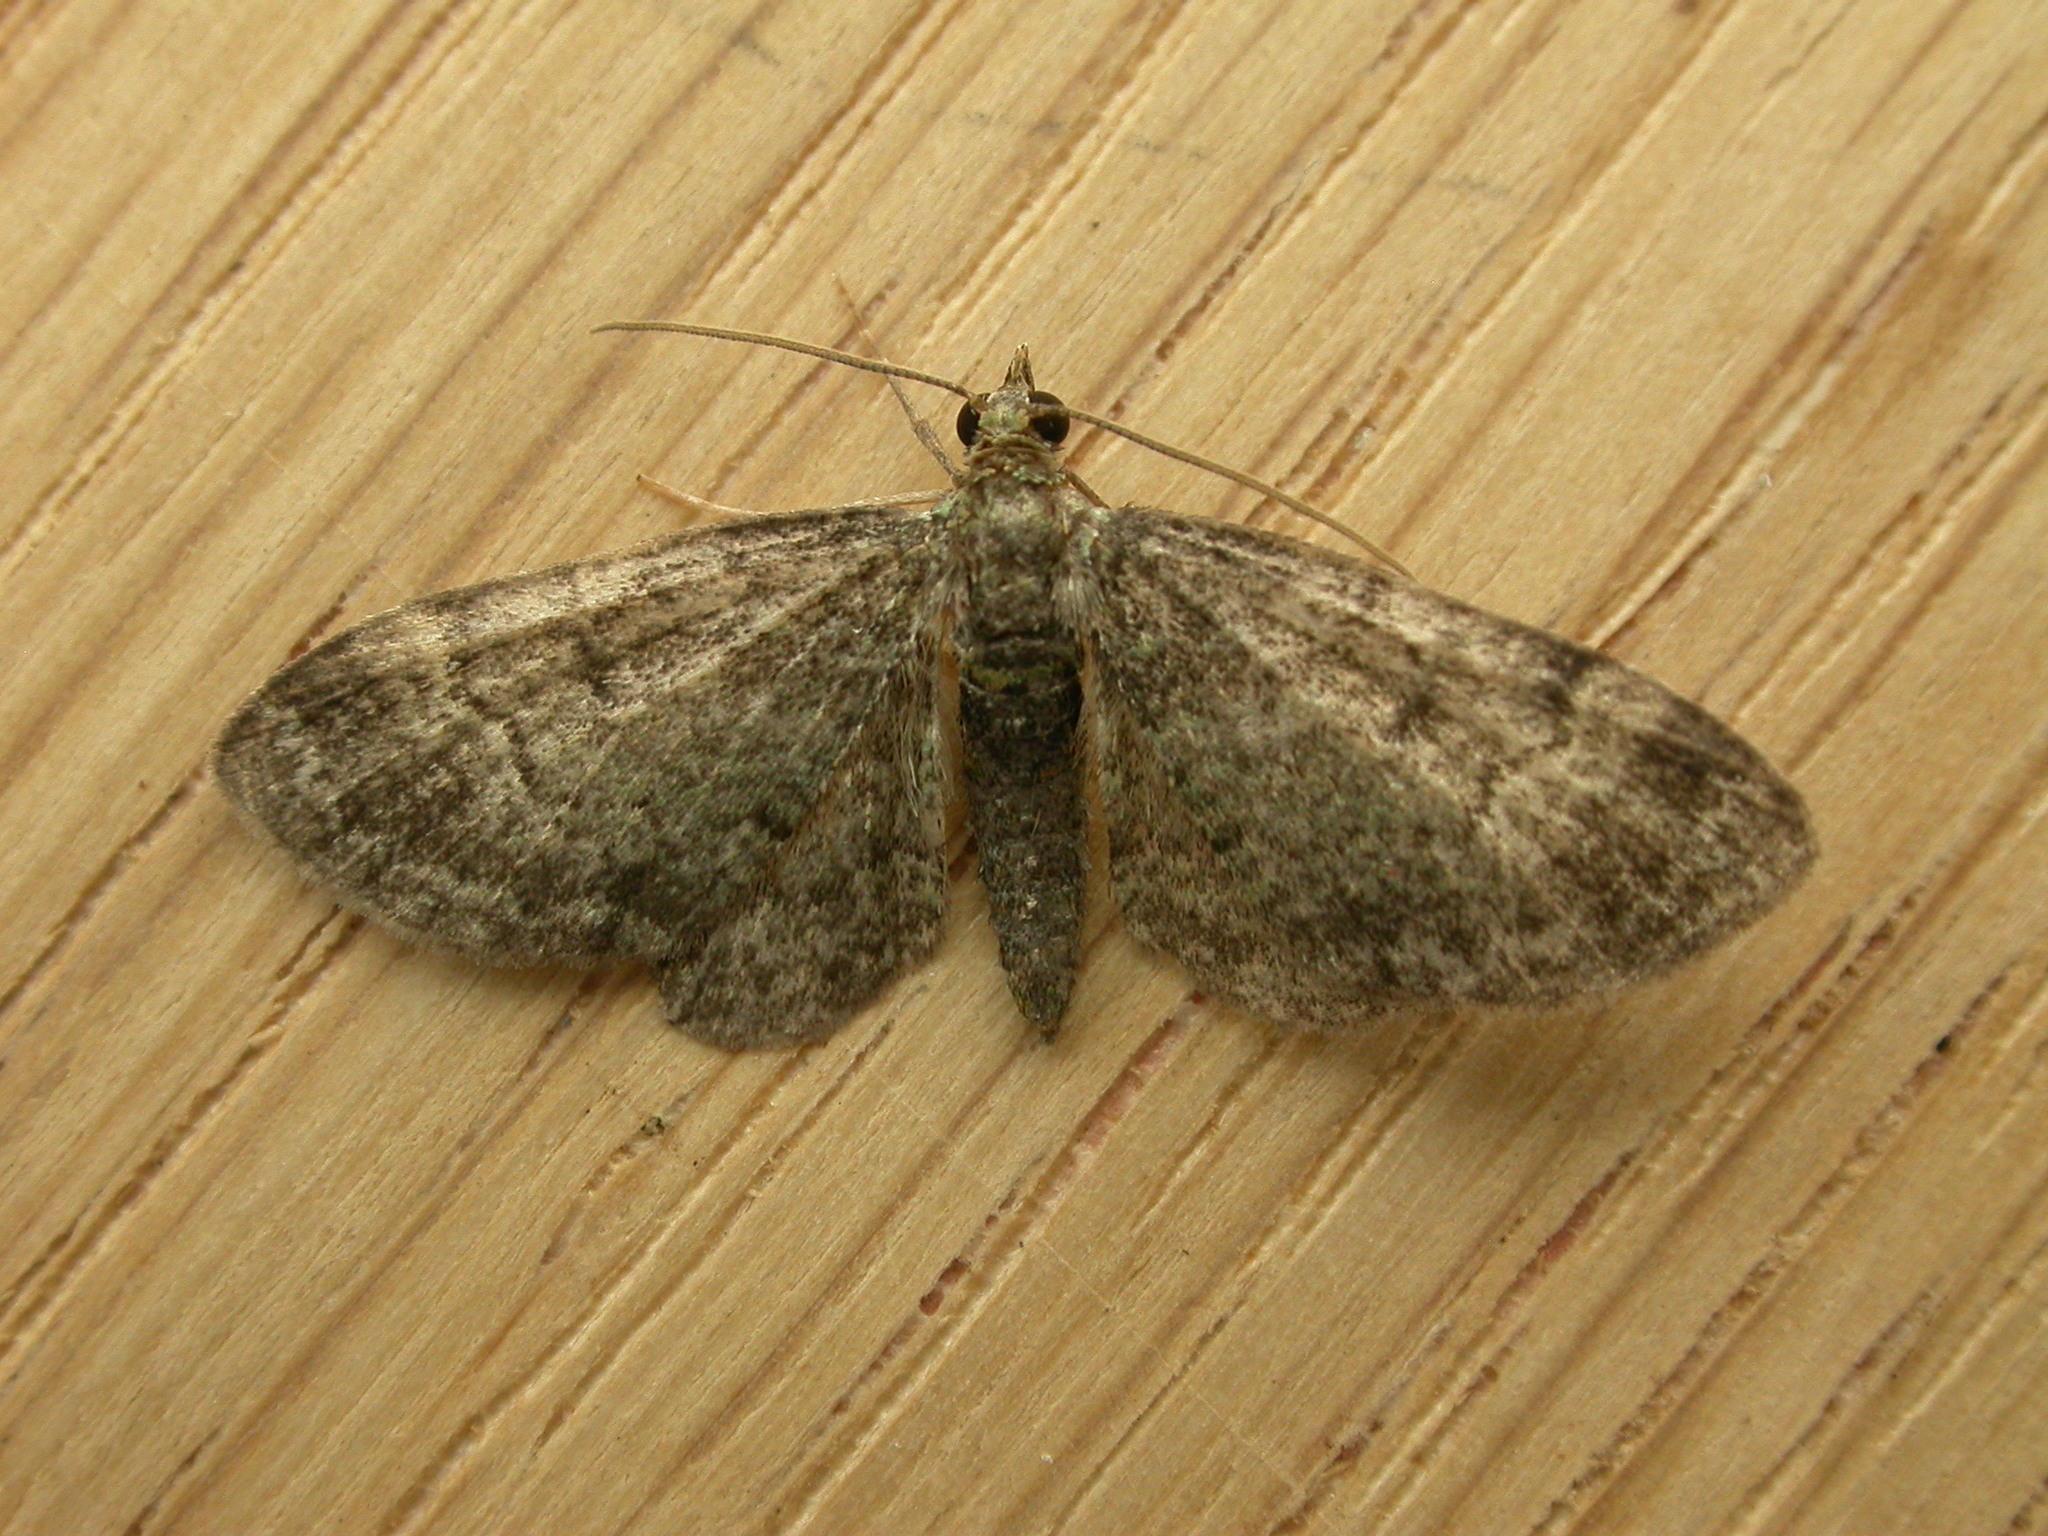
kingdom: Animalia
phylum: Arthropoda
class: Insecta
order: Lepidoptera
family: Geometridae
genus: Pasiphila
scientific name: Pasiphila rectangulata
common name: Green pug
